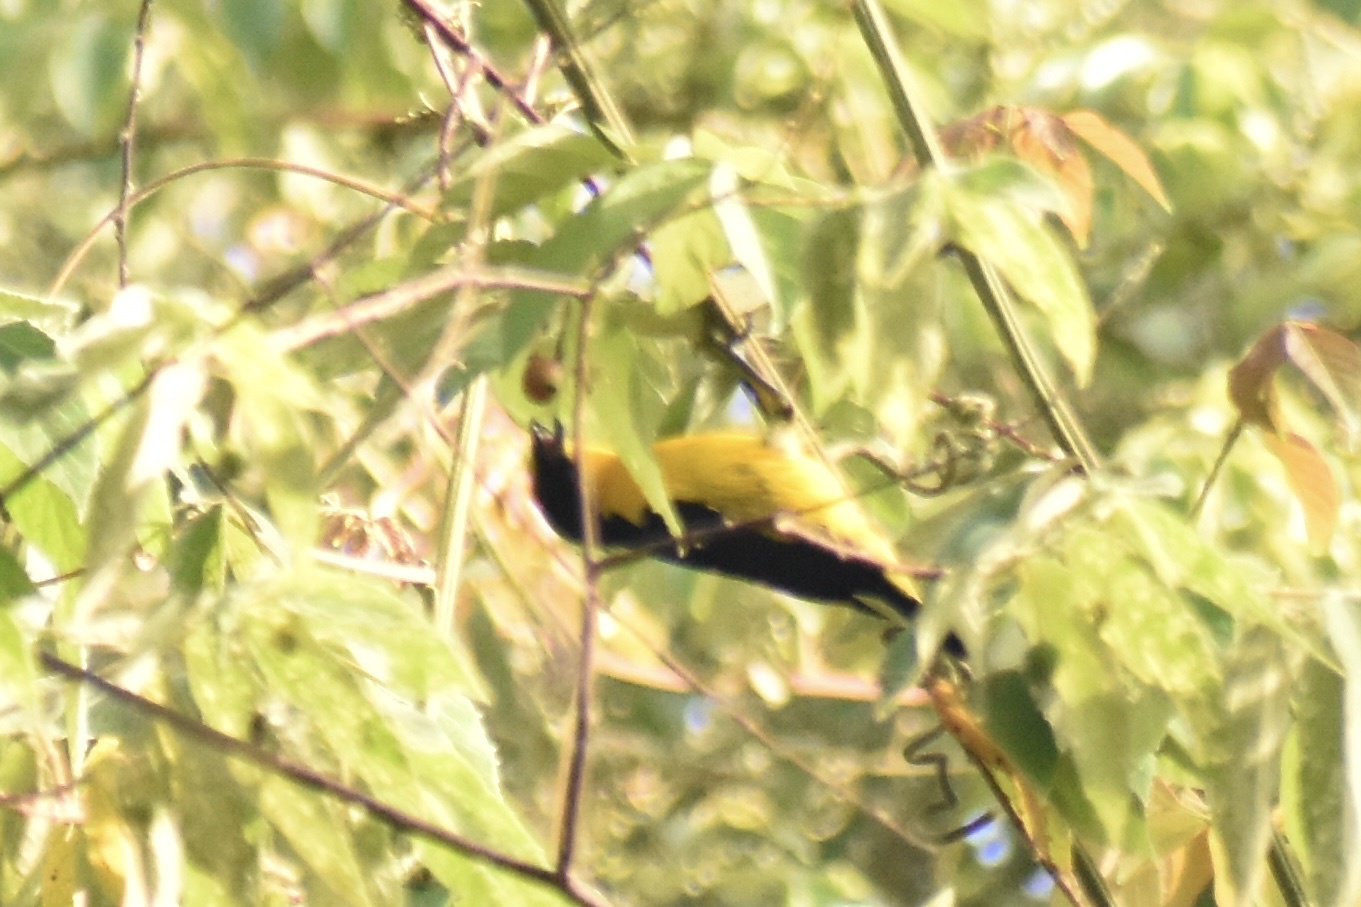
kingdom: Animalia
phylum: Chordata
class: Aves
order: Passeriformes
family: Fringillidae
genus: Euphonia
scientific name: Euphonia laniirostris
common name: Thick-billed euphonia
